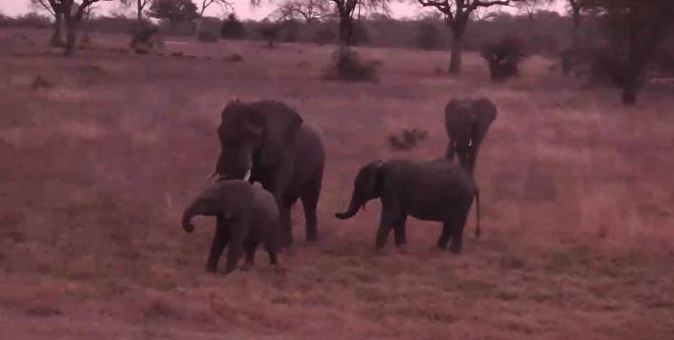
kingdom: Animalia
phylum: Chordata
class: Mammalia
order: Proboscidea
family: Elephantidae
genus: Loxodonta
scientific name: Loxodonta africana
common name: African elephant
